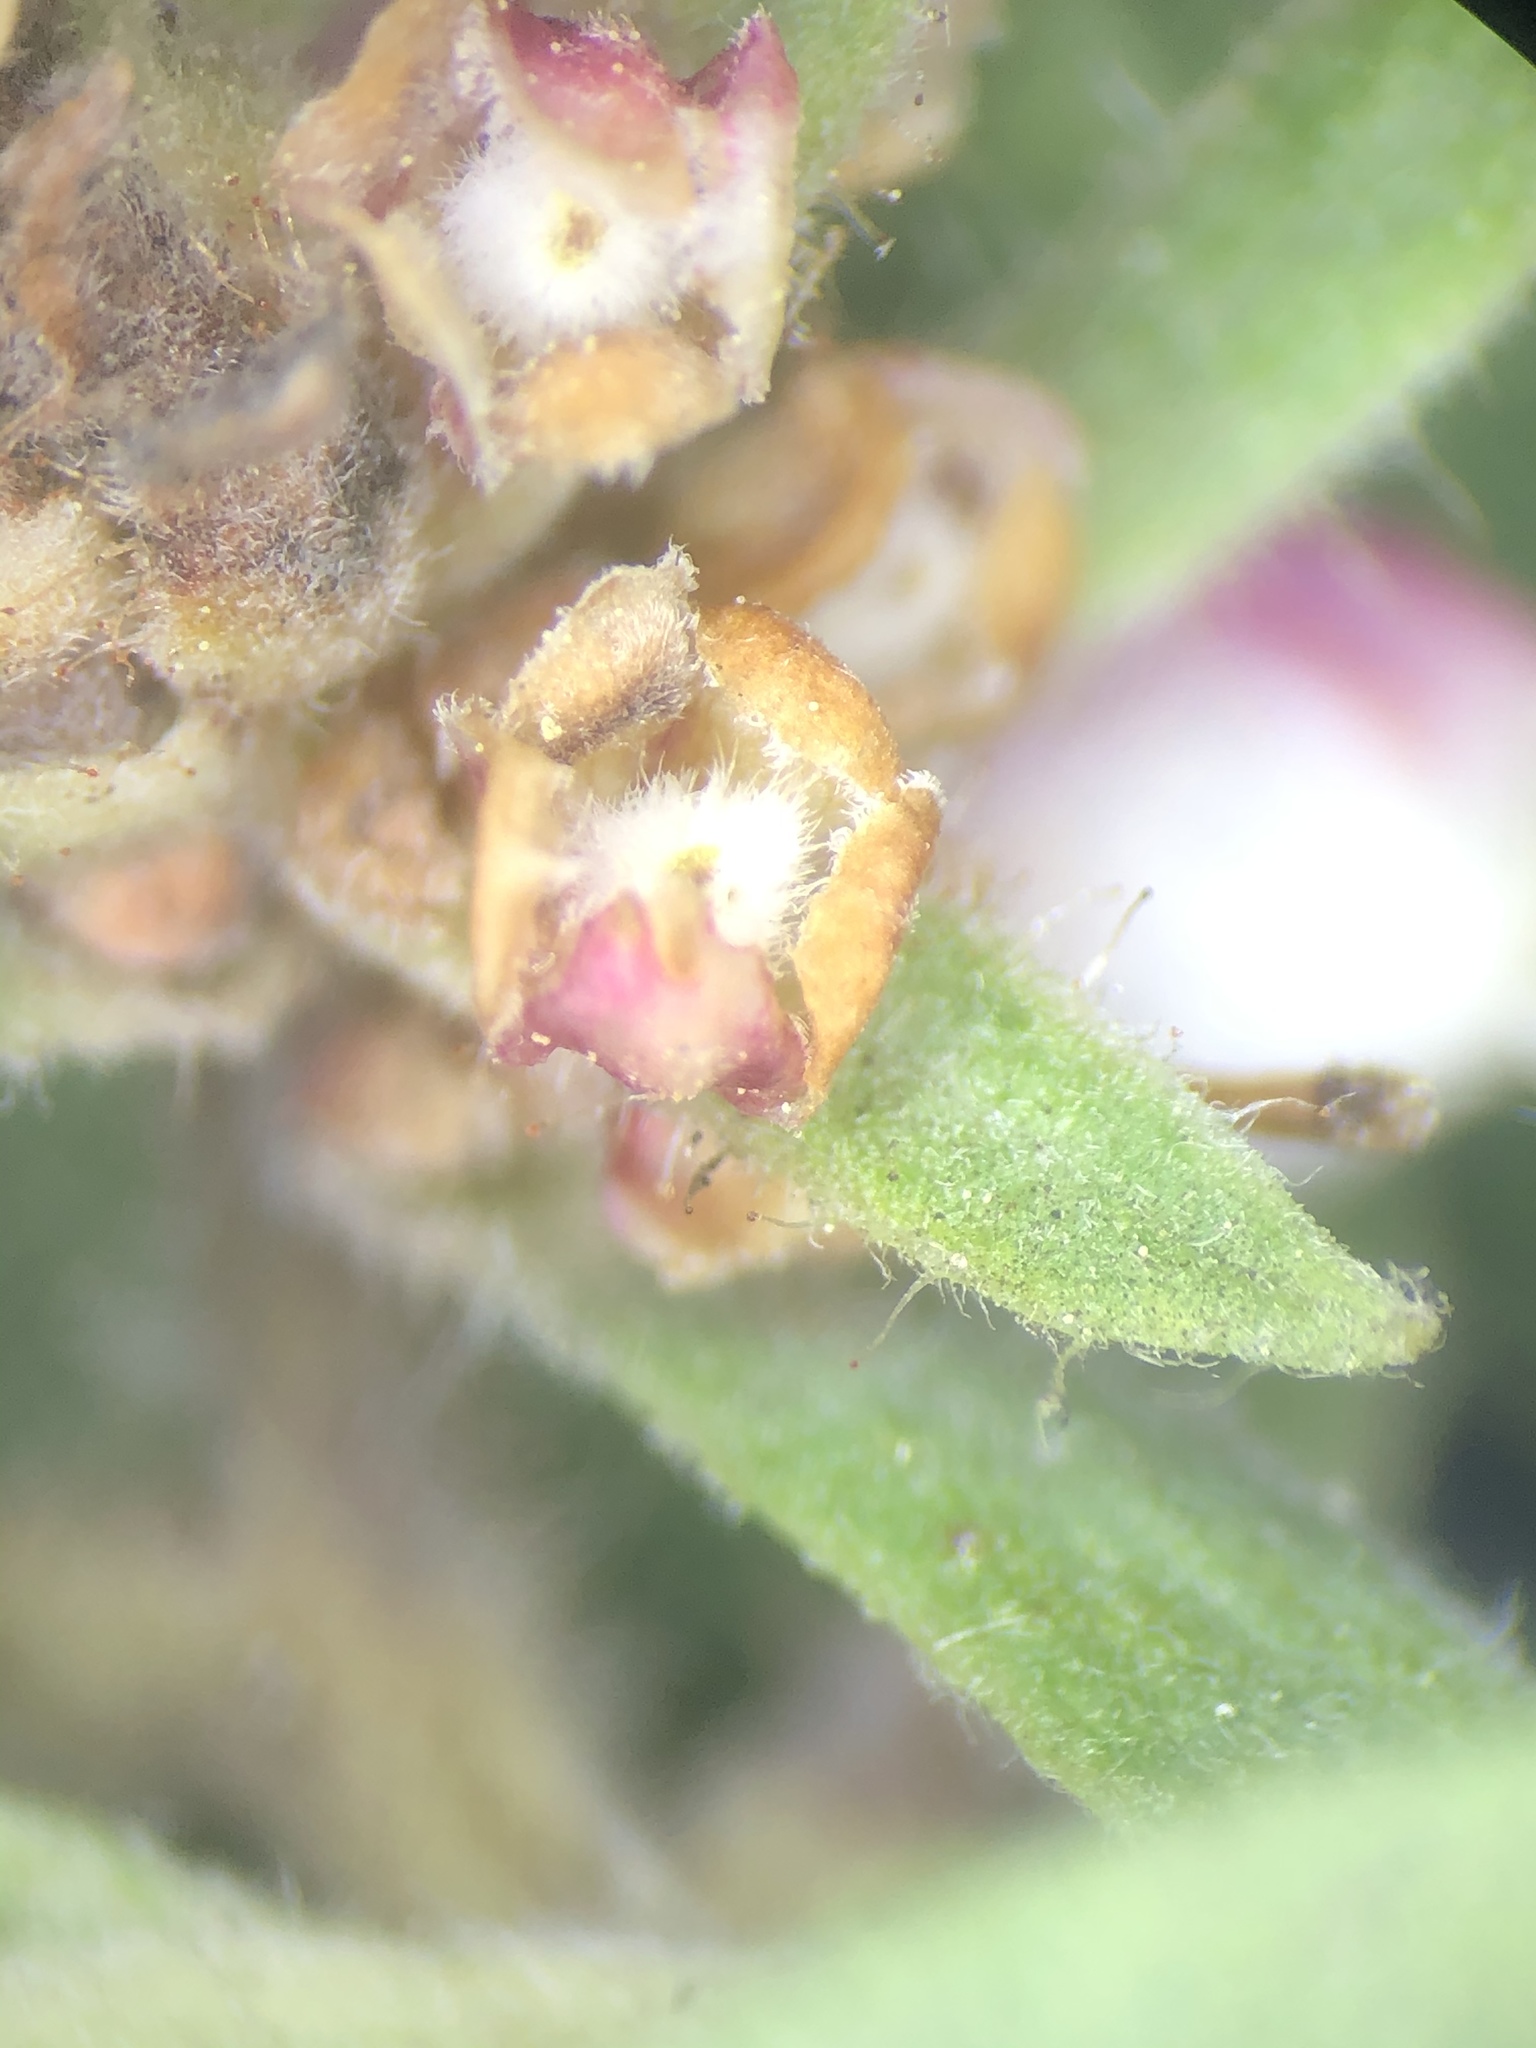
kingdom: Plantae
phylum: Tracheophyta
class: Magnoliopsida
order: Ericales
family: Ericaceae
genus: Arctostaphylos
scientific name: Arctostaphylos glandulosa
